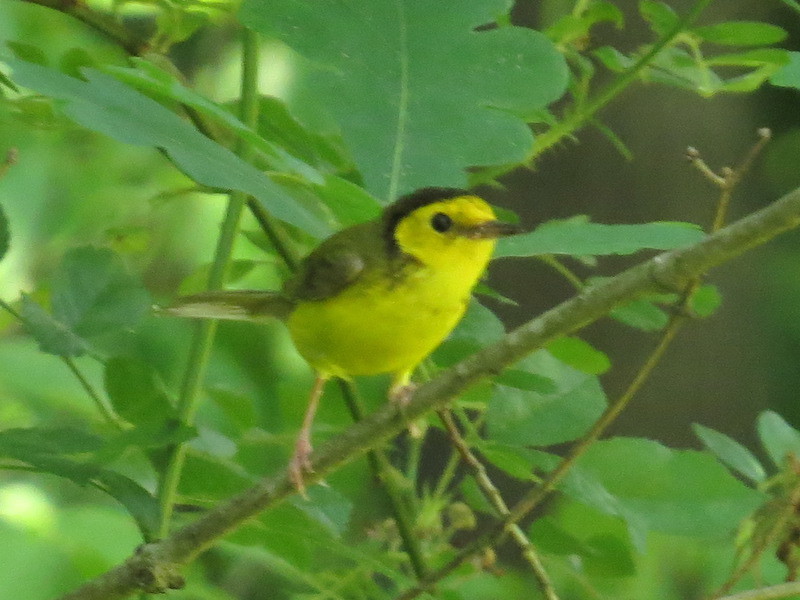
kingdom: Animalia
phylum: Chordata
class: Aves
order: Passeriformes
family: Parulidae
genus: Setophaga
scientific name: Setophaga citrina
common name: Hooded warbler
